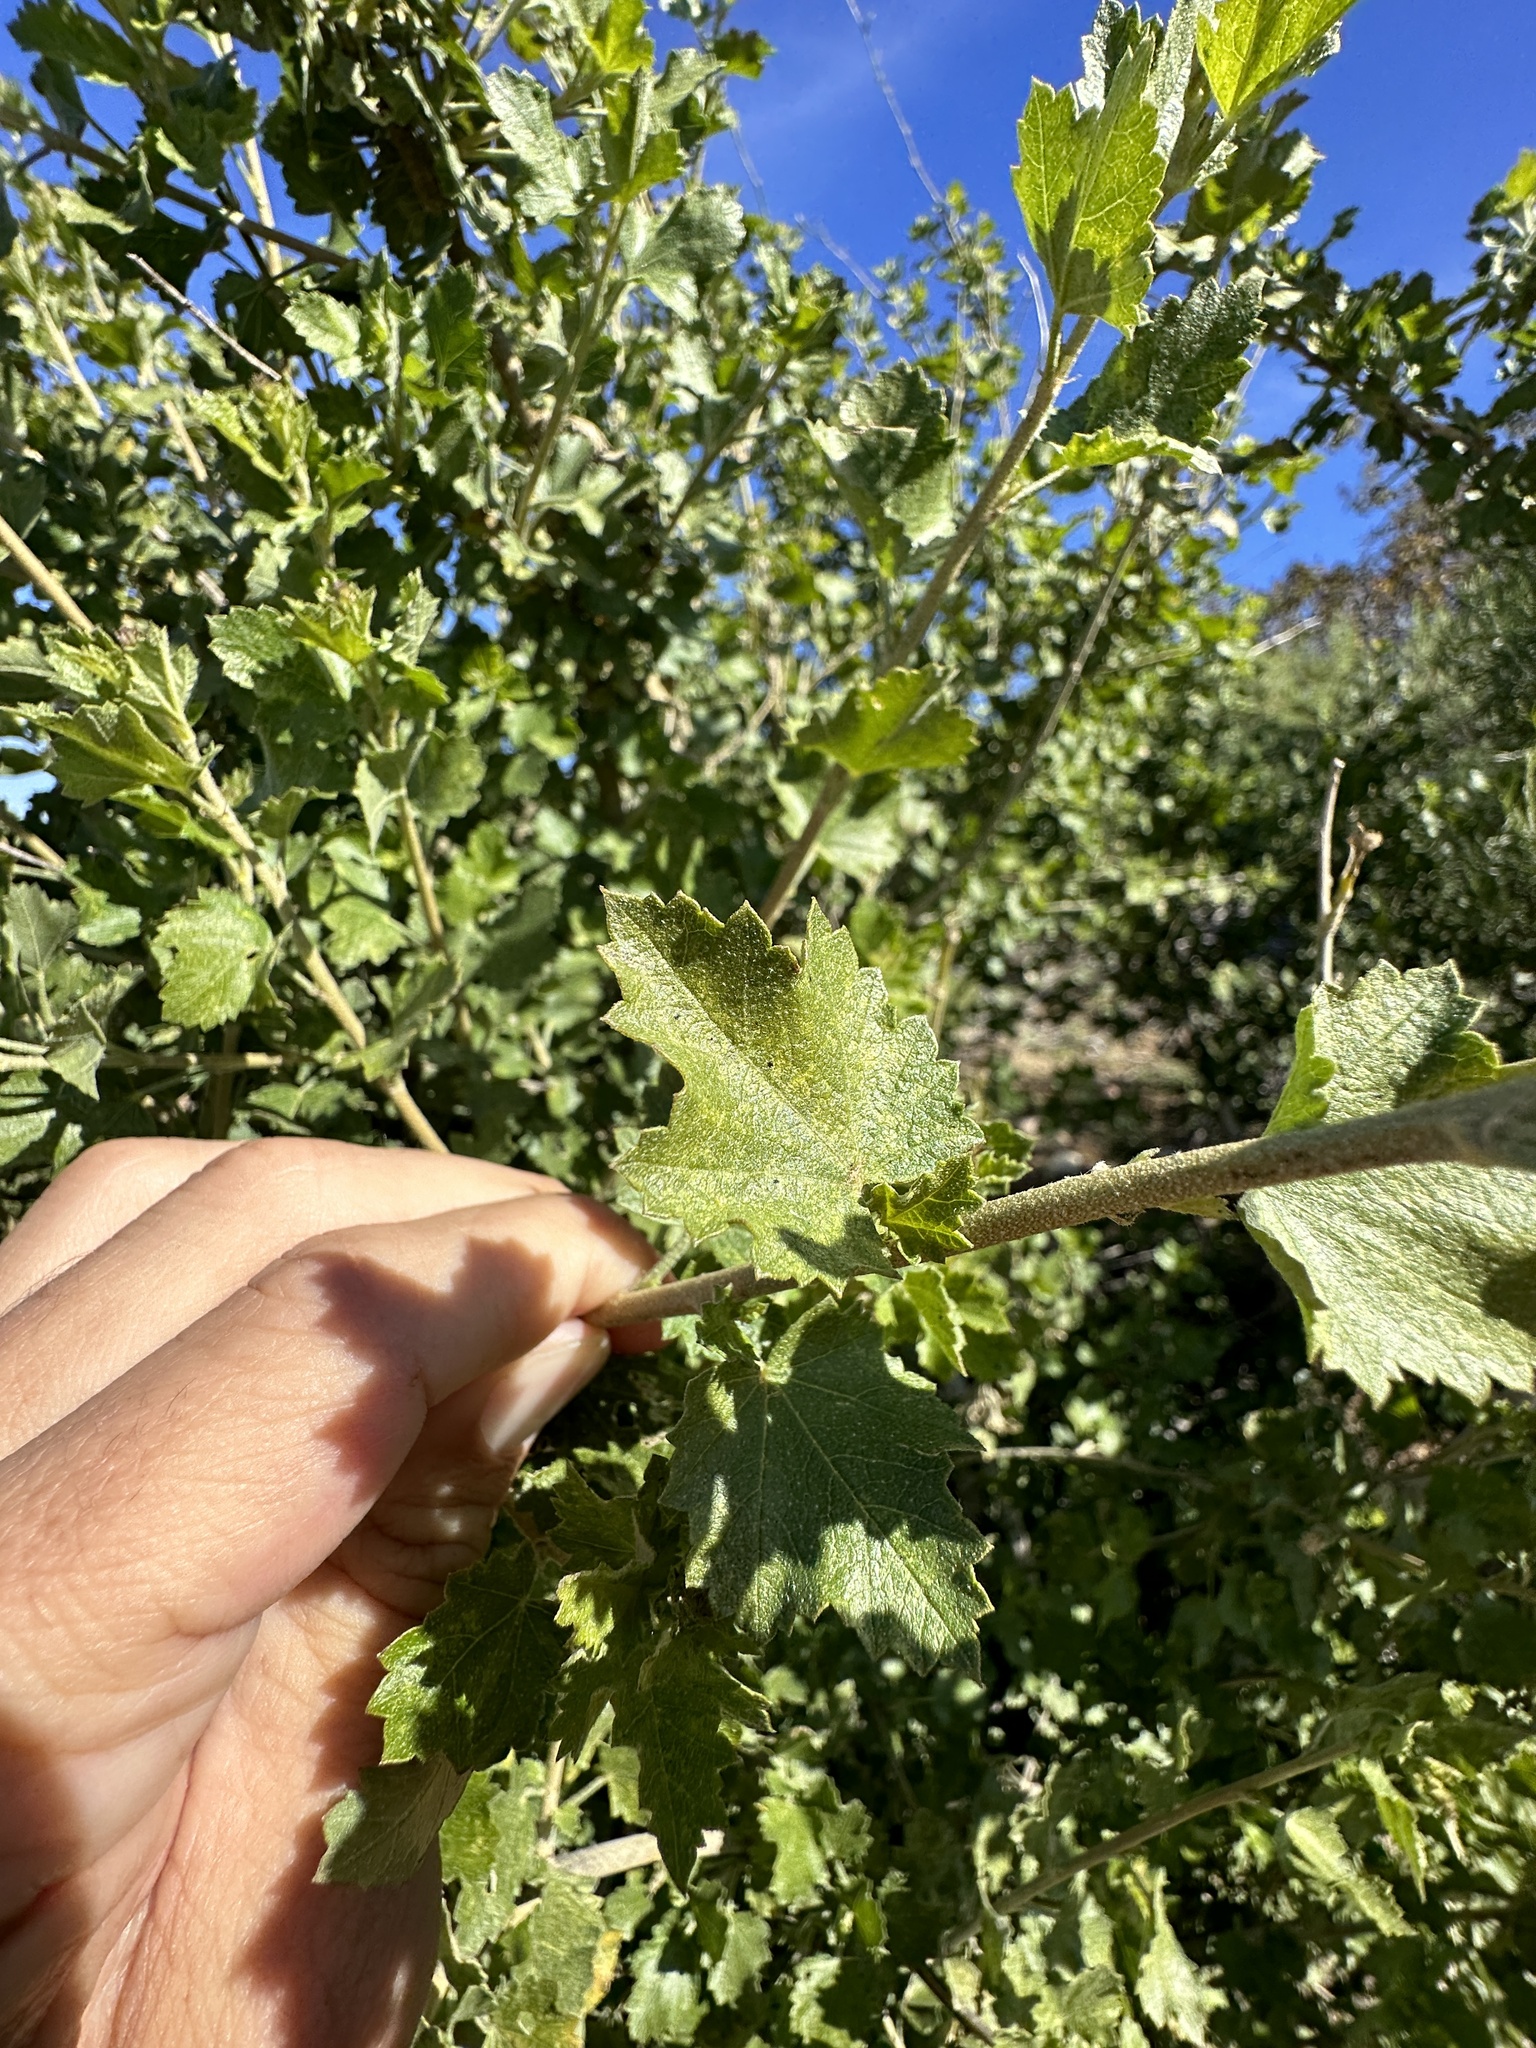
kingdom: Plantae
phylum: Tracheophyta
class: Magnoliopsida
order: Malvales
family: Malvaceae
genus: Malacothamnus
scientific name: Malacothamnus fasciculatus
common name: Sant cruz island bush-mallow
